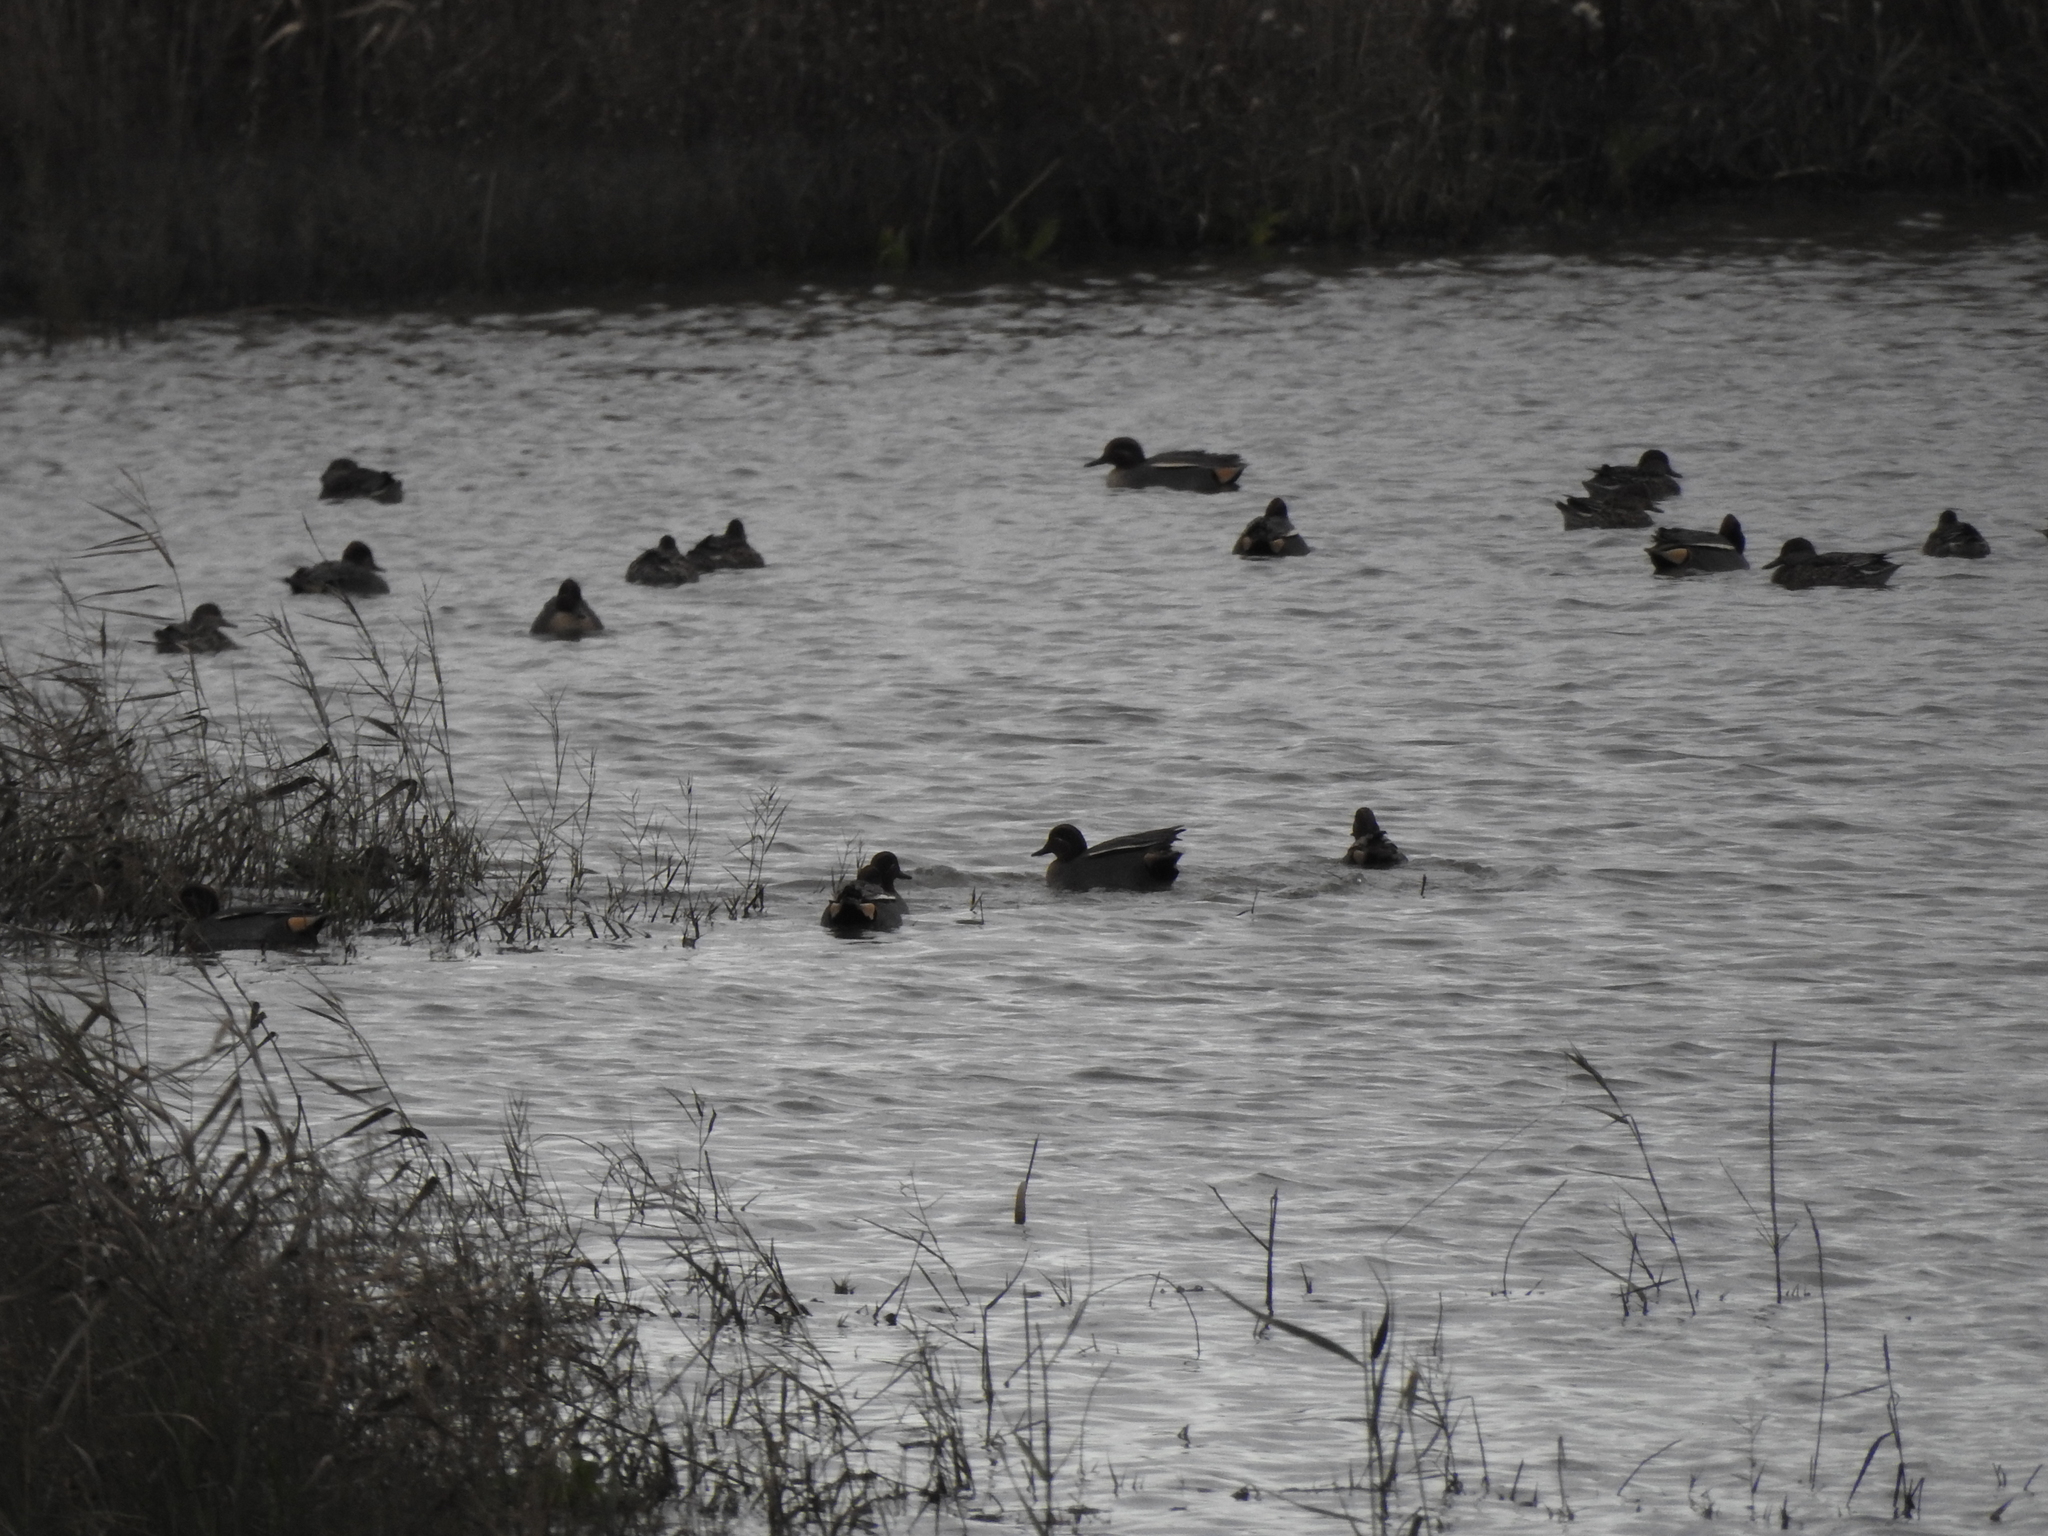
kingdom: Animalia
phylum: Chordata
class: Aves
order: Anseriformes
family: Anatidae
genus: Anas
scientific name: Anas crecca
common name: Eurasian teal
